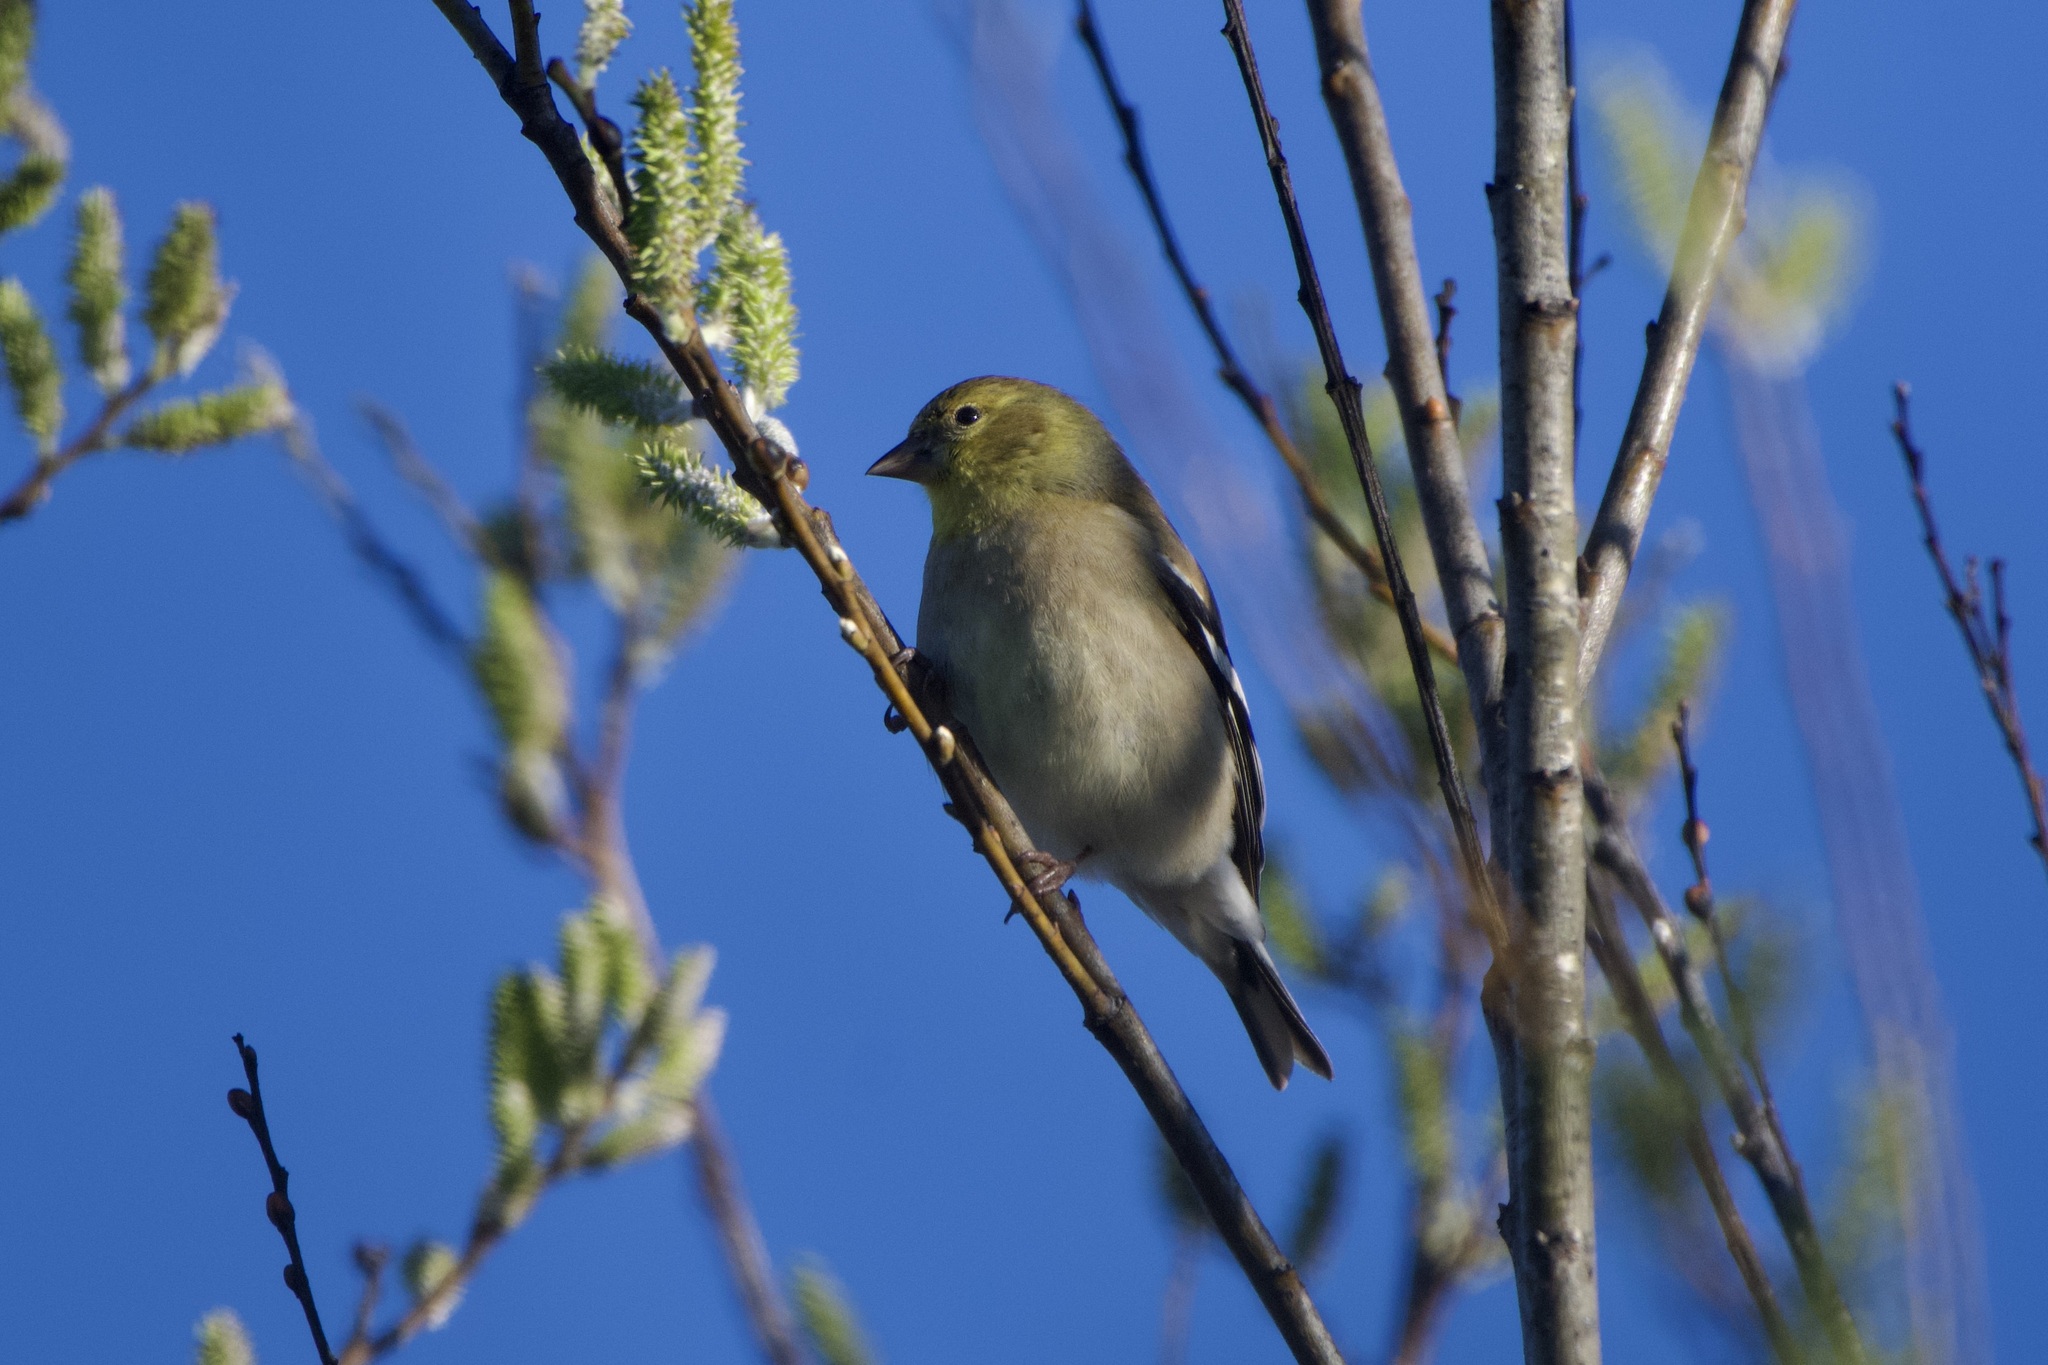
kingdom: Animalia
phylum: Chordata
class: Aves
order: Passeriformes
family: Fringillidae
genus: Spinus
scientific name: Spinus tristis
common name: American goldfinch
